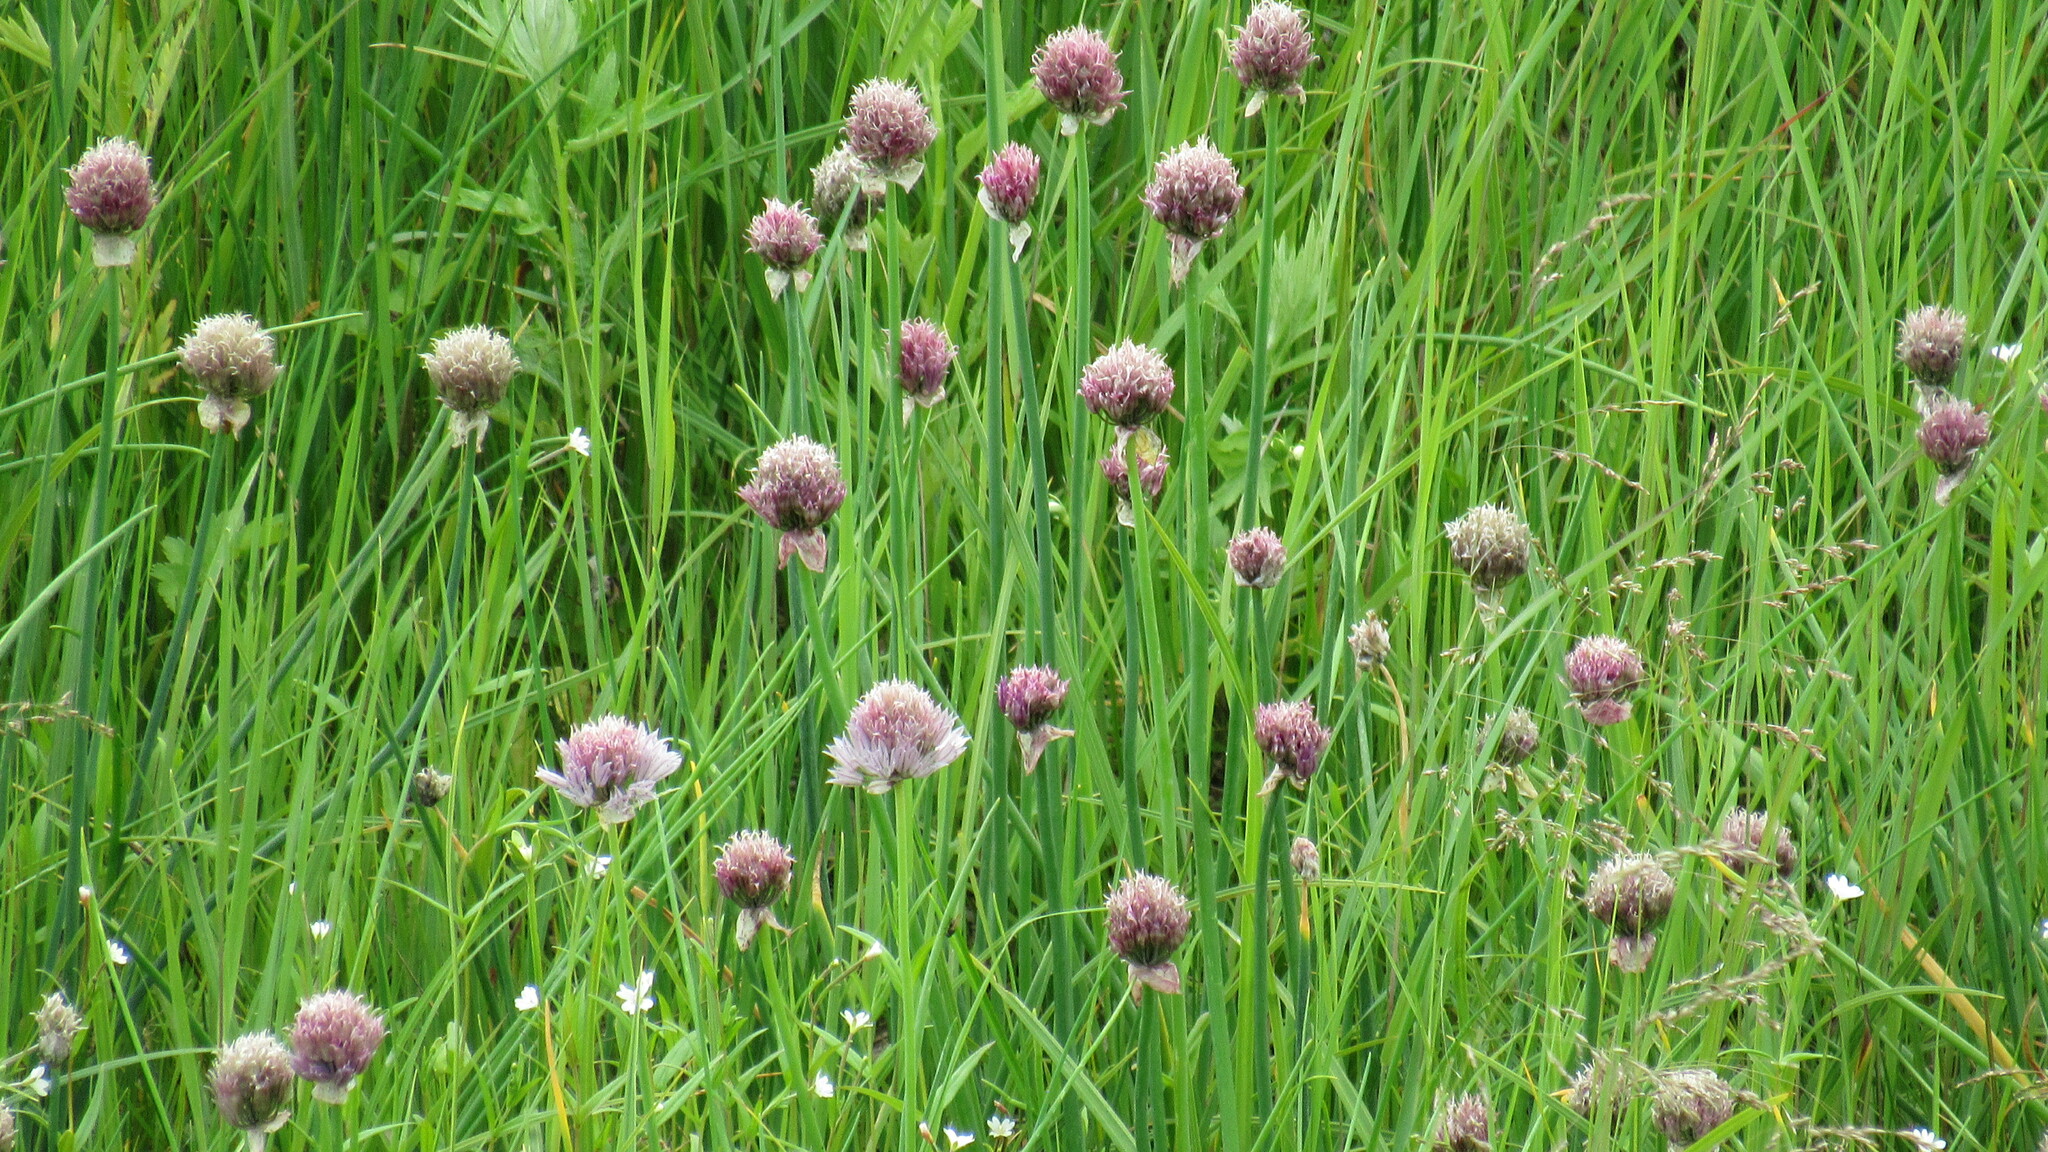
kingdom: Plantae
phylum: Tracheophyta
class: Liliopsida
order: Asparagales
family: Amaryllidaceae
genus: Allium
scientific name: Allium schoenoprasum
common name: Chives
